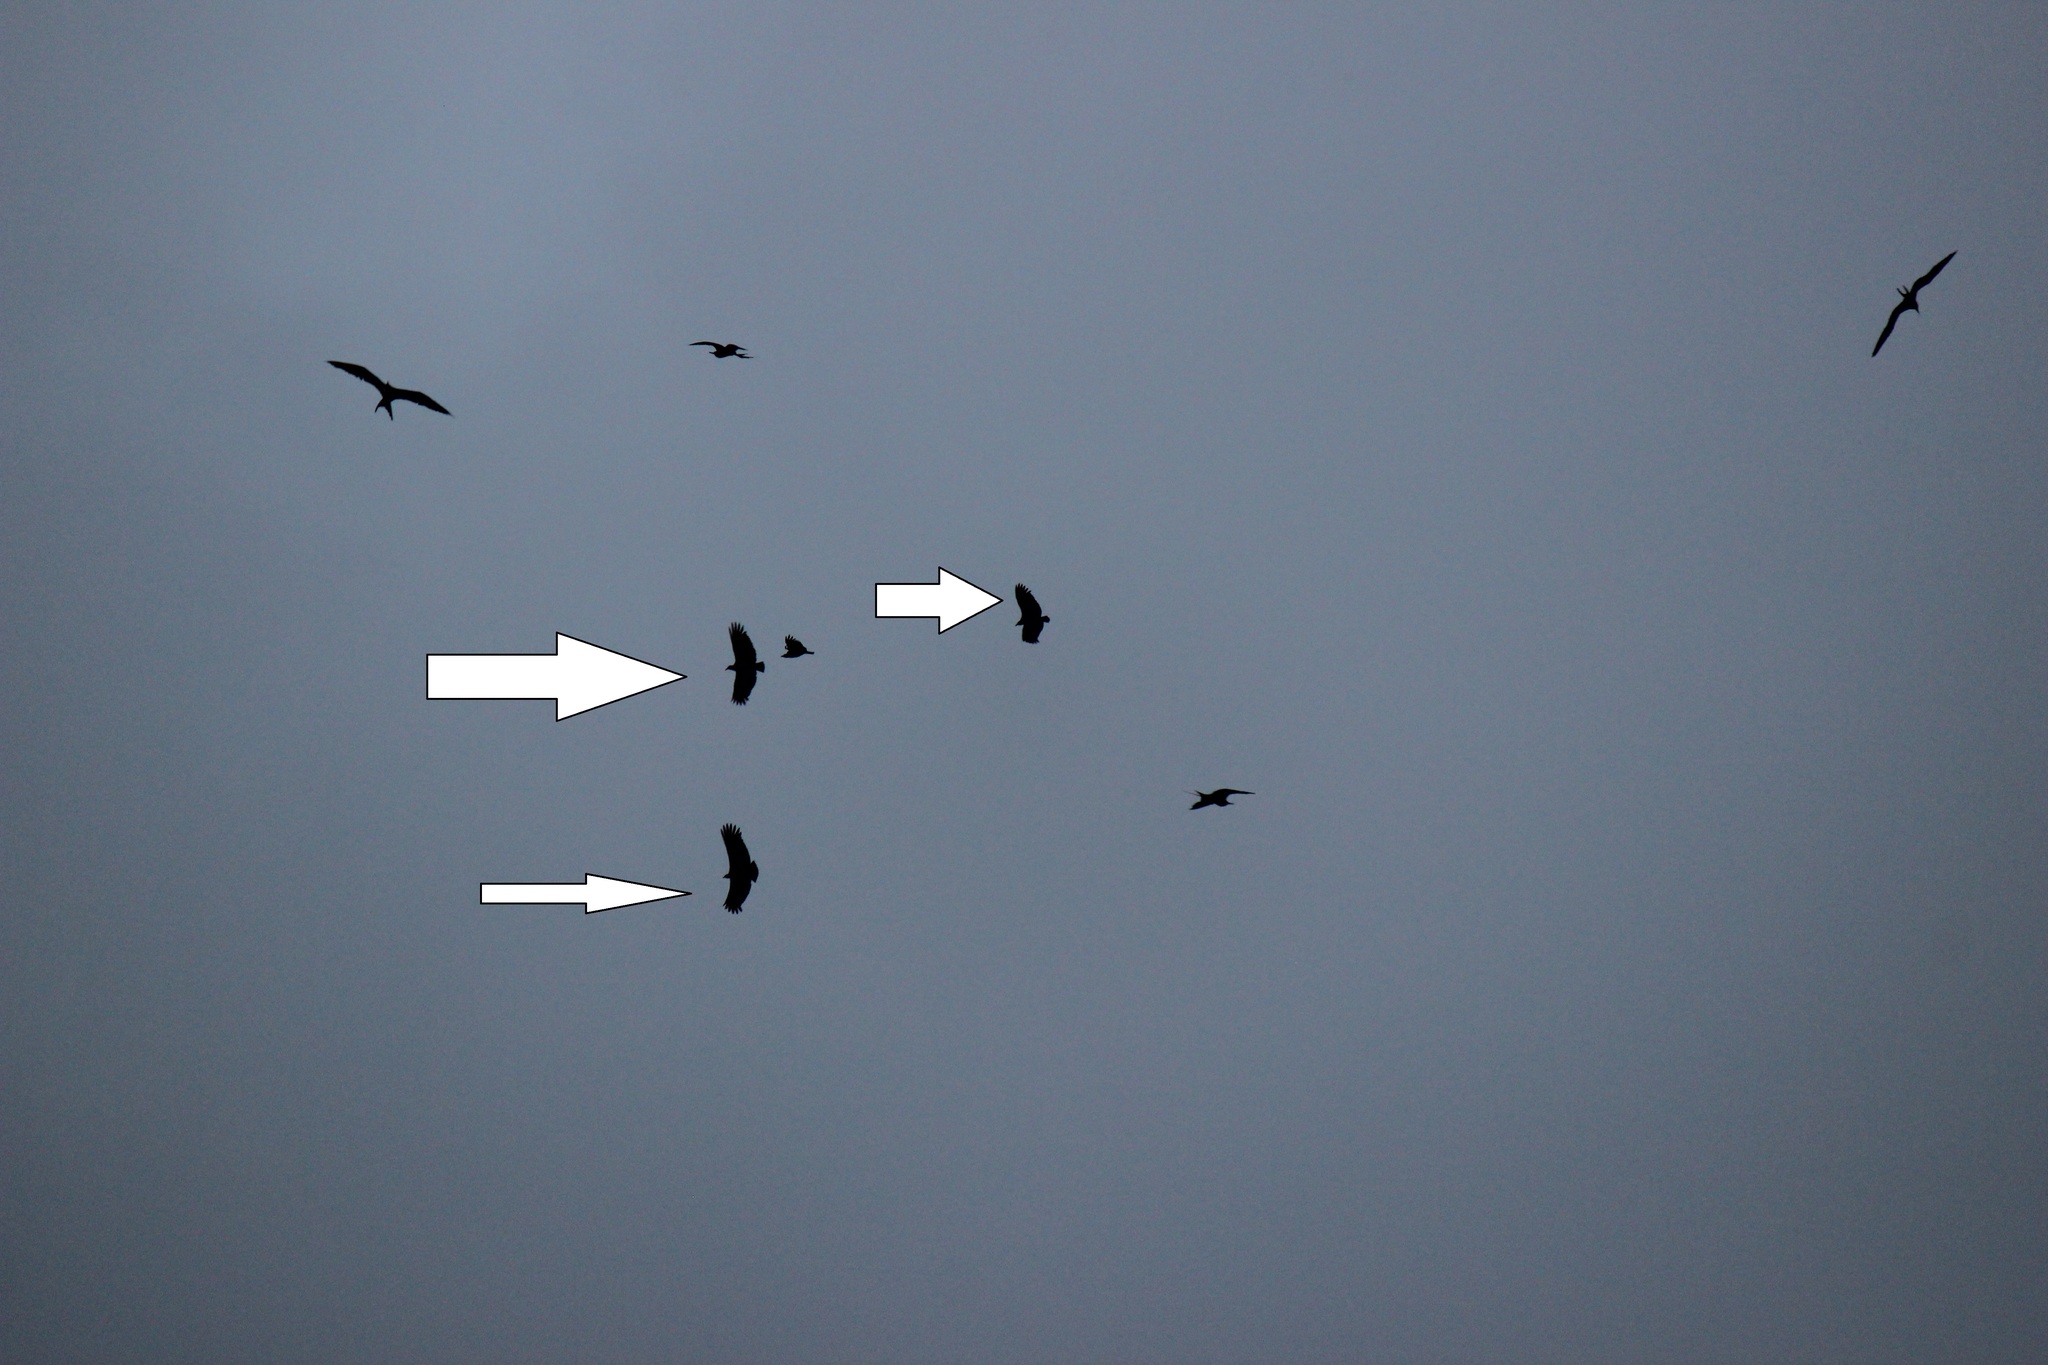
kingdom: Animalia
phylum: Chordata
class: Aves
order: Accipitriformes
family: Cathartidae
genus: Coragyps
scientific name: Coragyps atratus
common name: Black vulture
